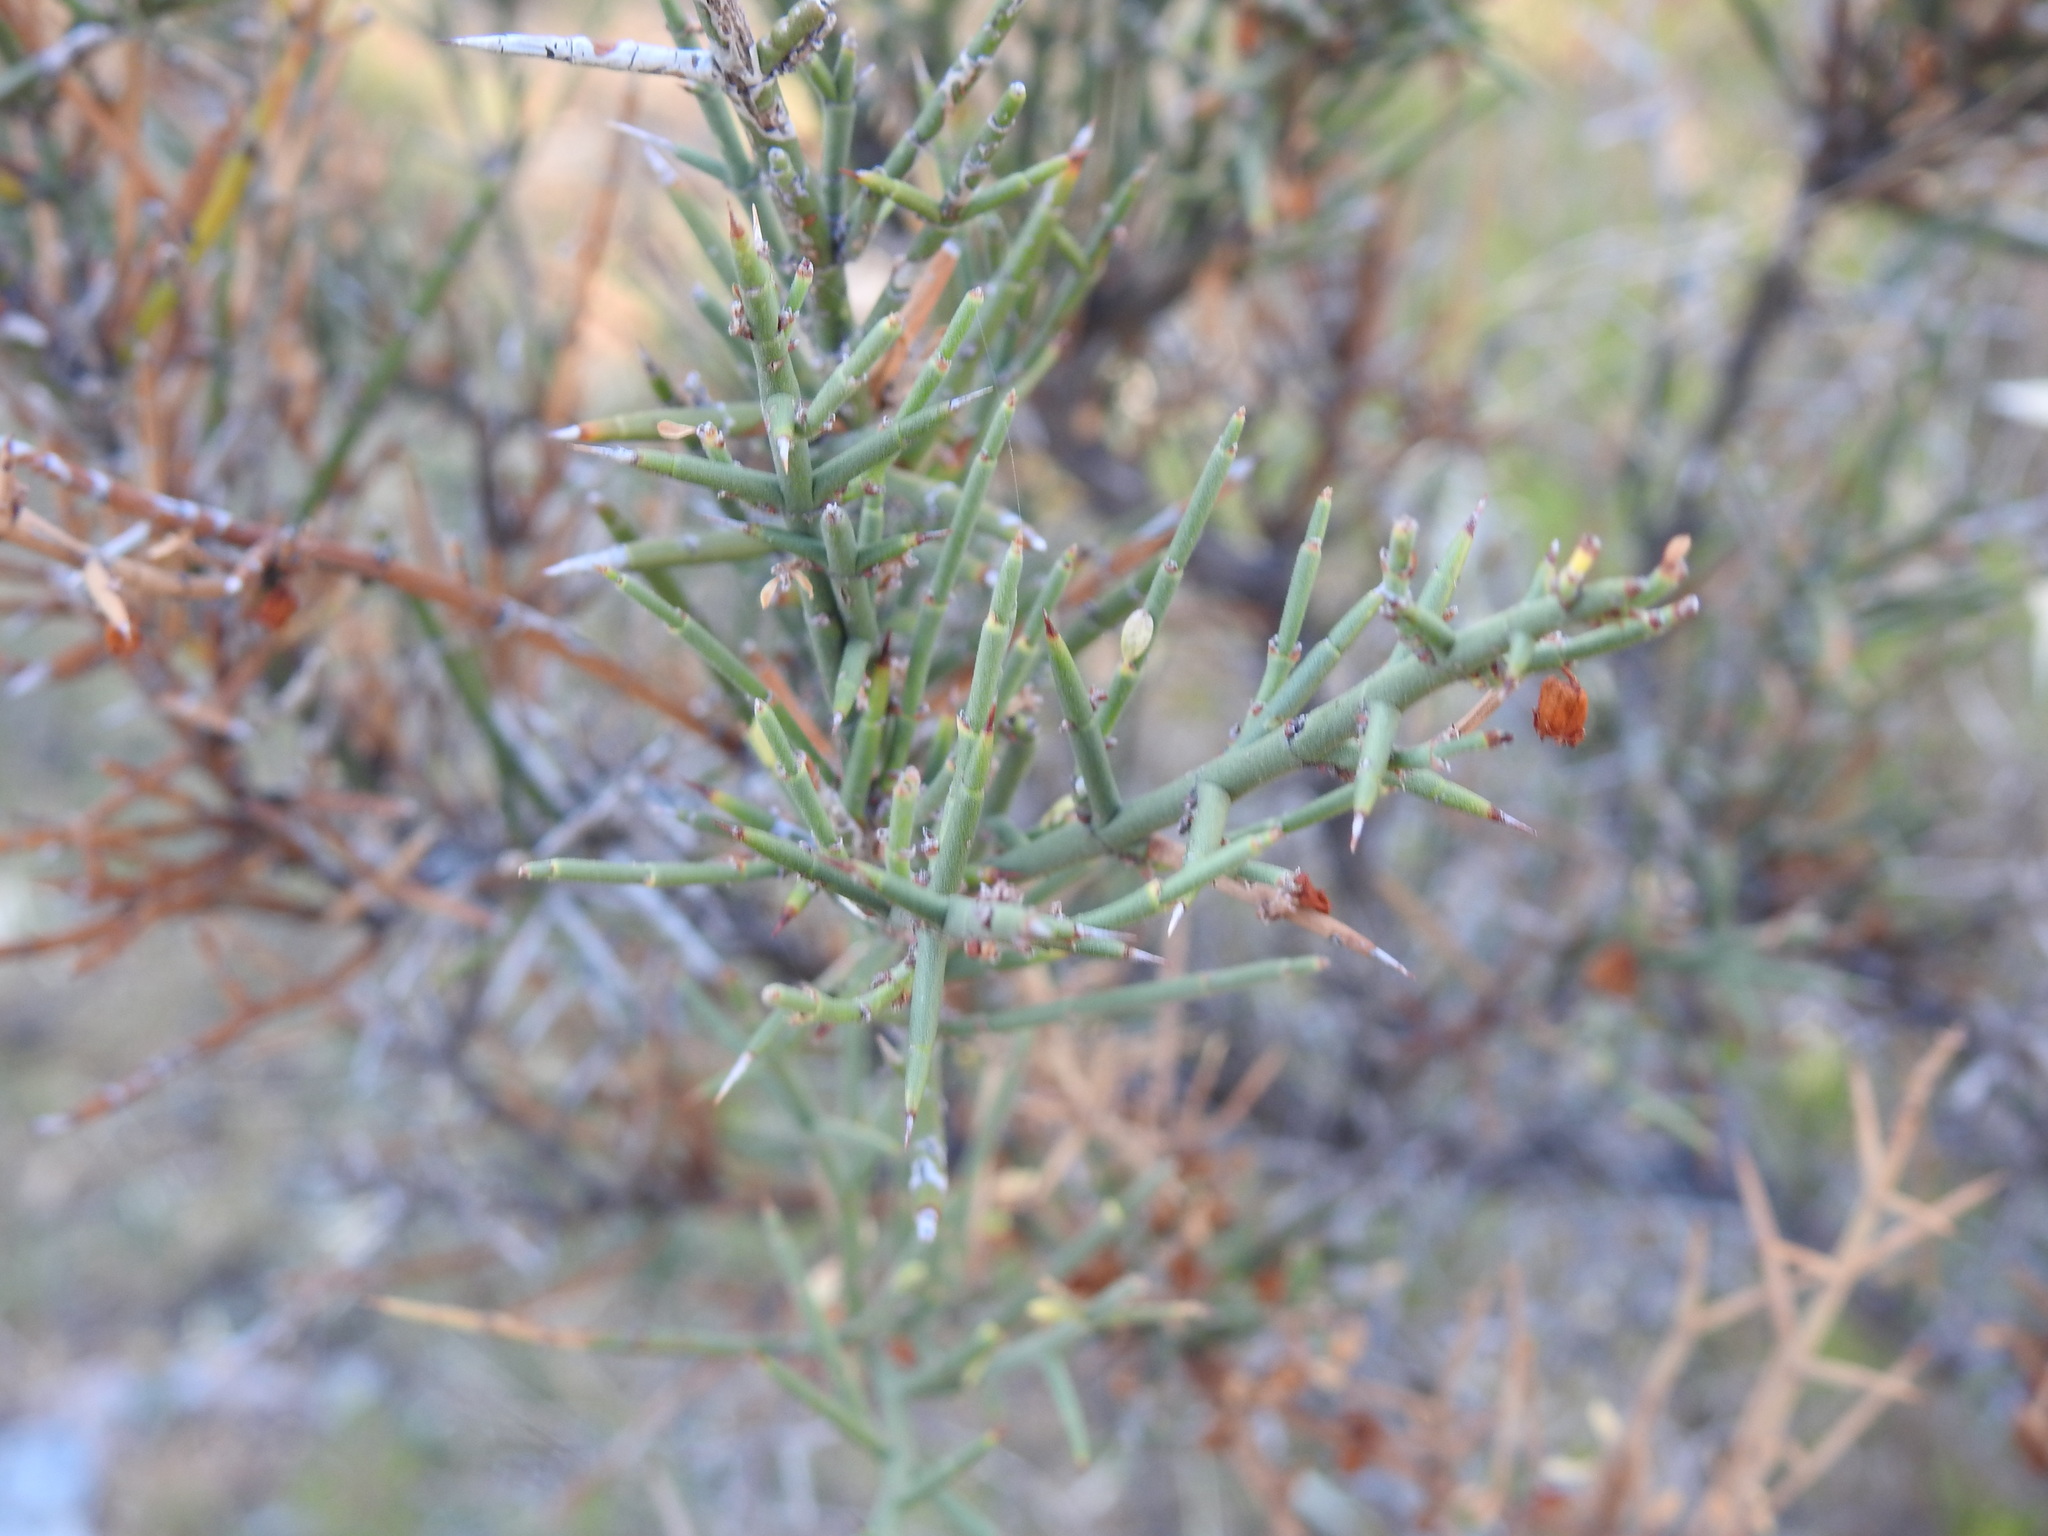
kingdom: Plantae
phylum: Tracheophyta
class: Magnoliopsida
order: Rosales
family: Rhamnaceae
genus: Colletia
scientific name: Colletia spinosissima
